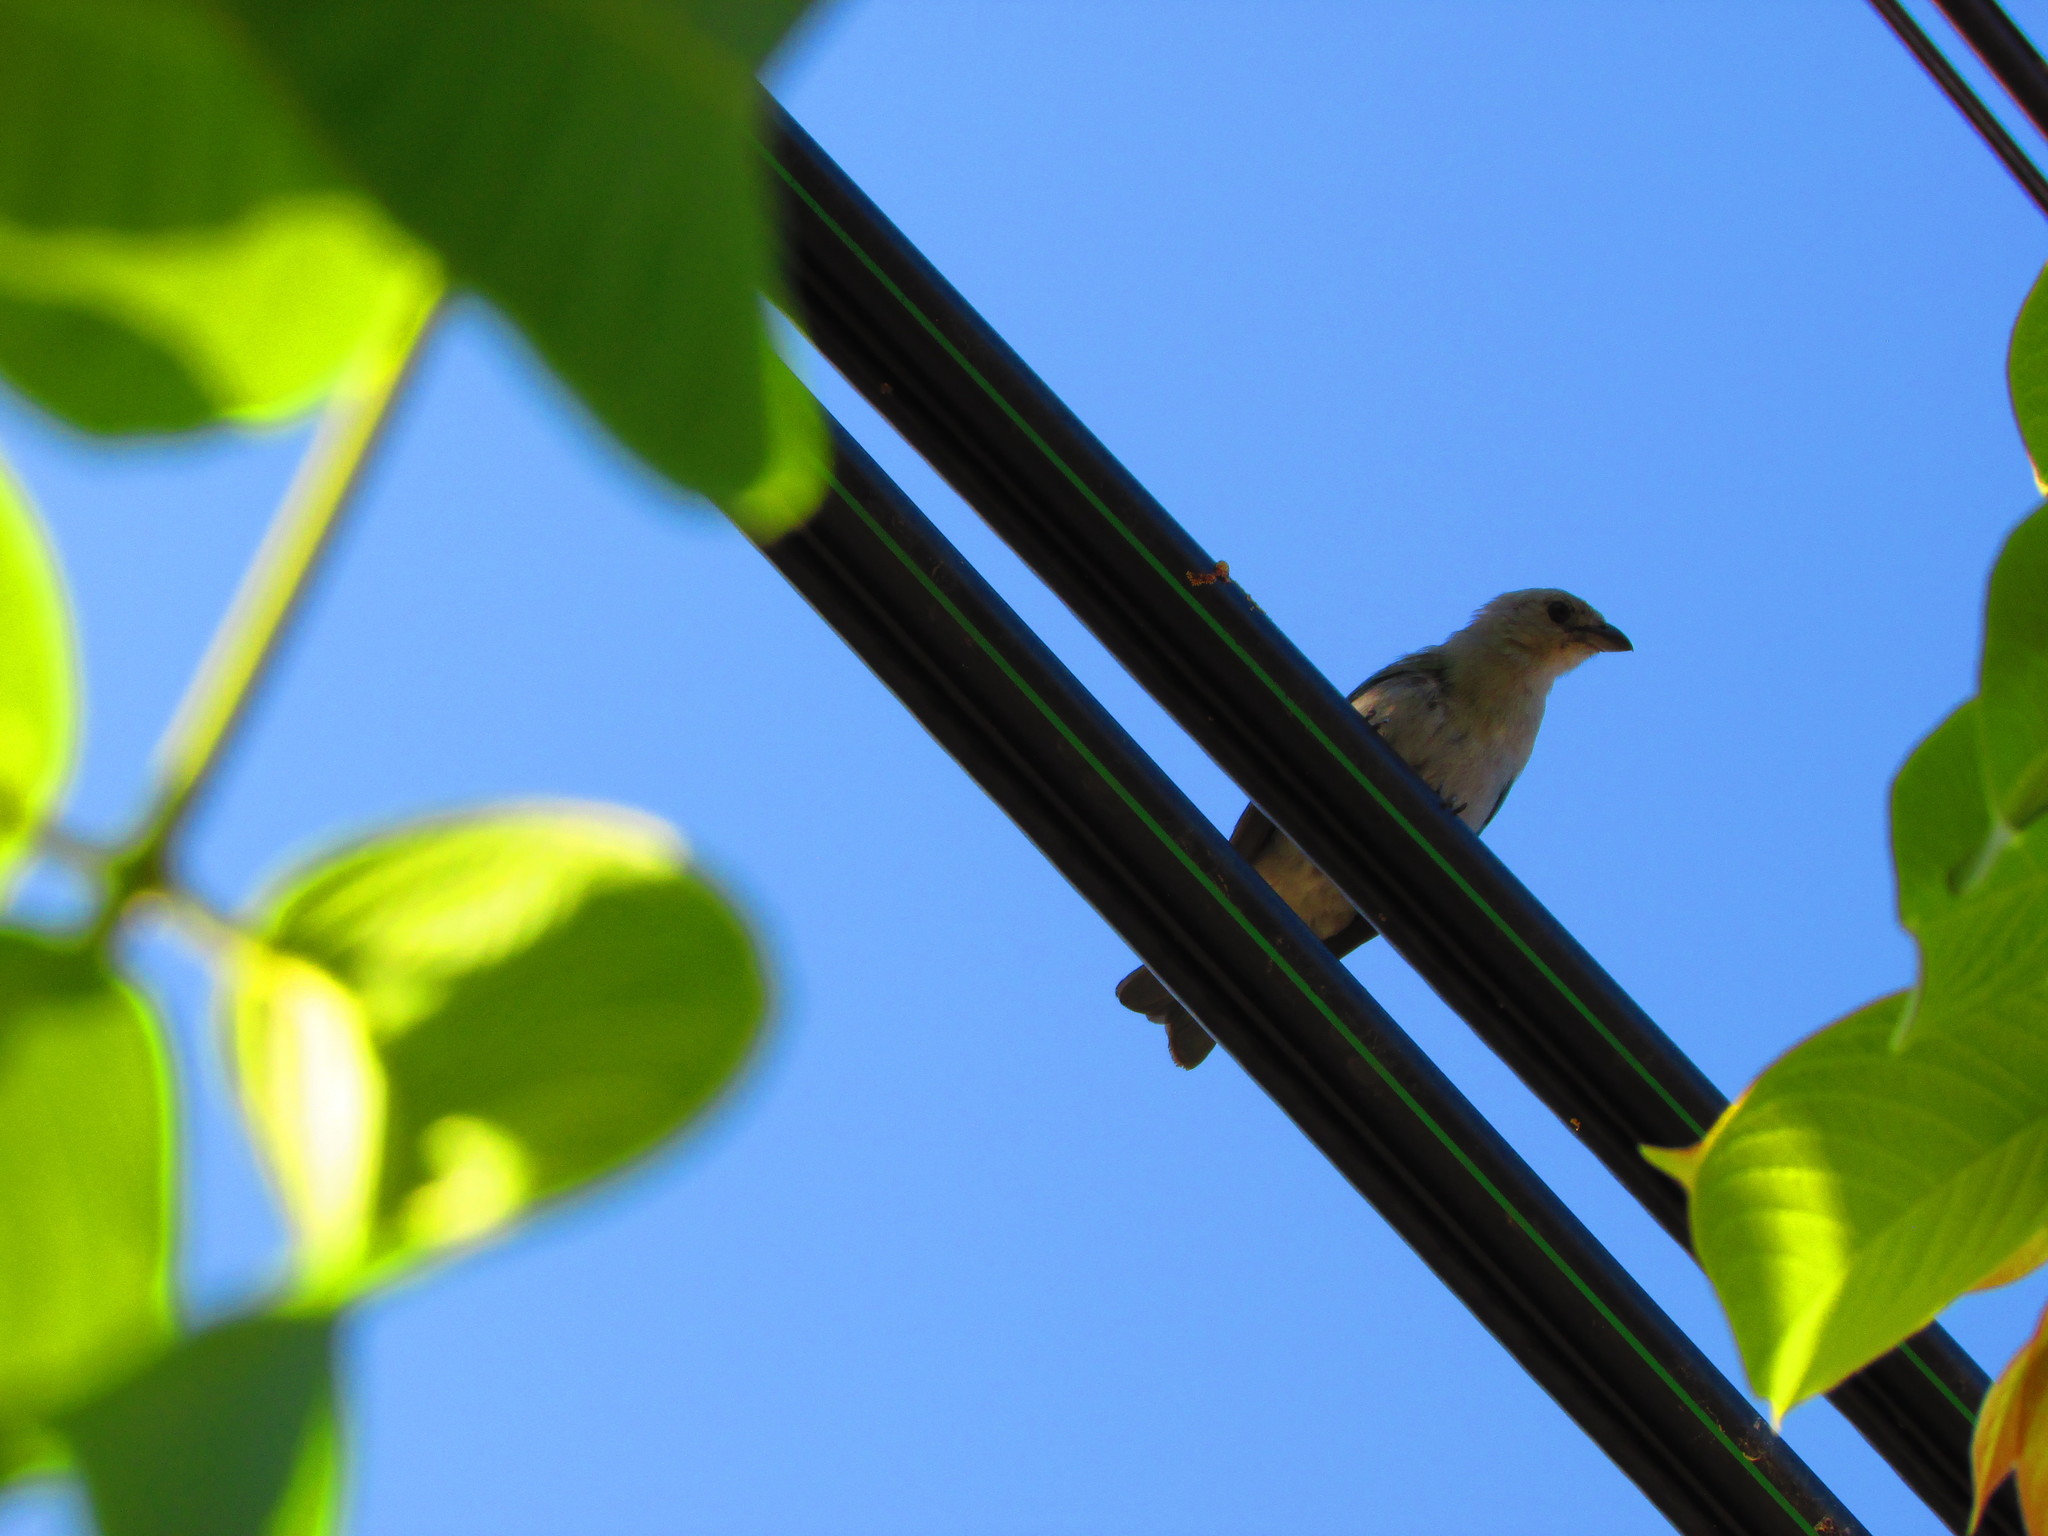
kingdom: Animalia
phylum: Chordata
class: Aves
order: Passeriformes
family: Thraupidae
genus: Thraupis
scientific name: Thraupis episcopus
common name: Blue-grey tanager
